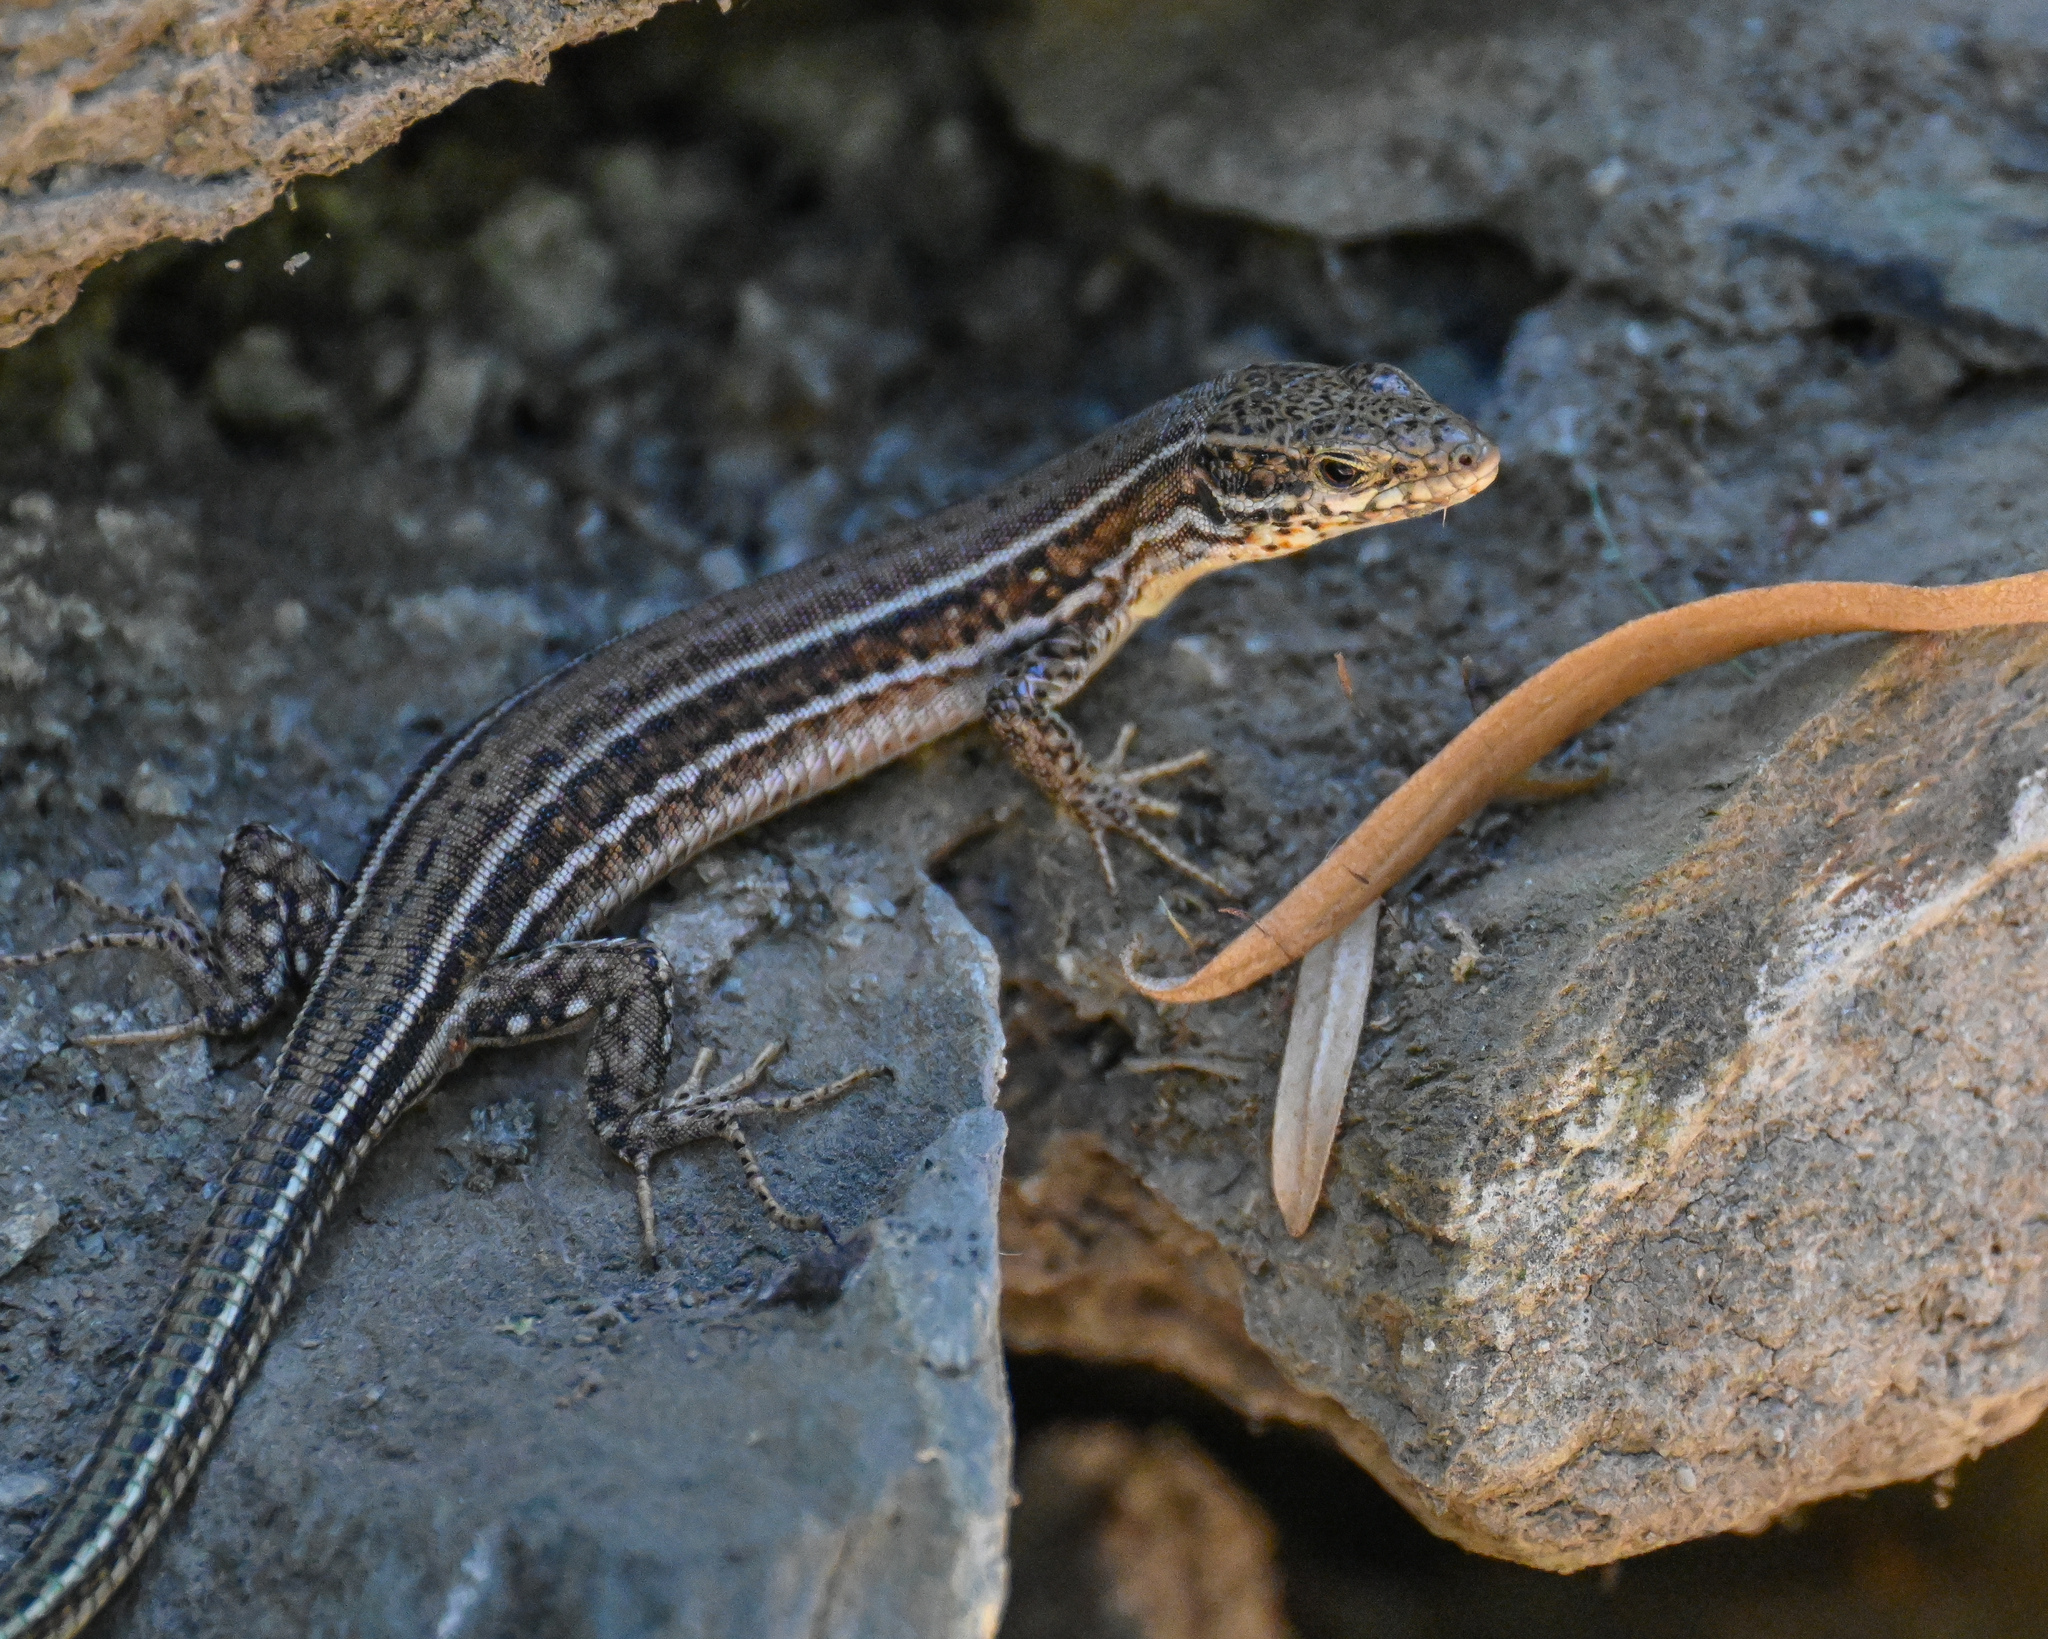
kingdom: Animalia
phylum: Chordata
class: Squamata
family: Lacertidae
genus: Podarcis
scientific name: Podarcis cretensis
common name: Cretan wall lizard
